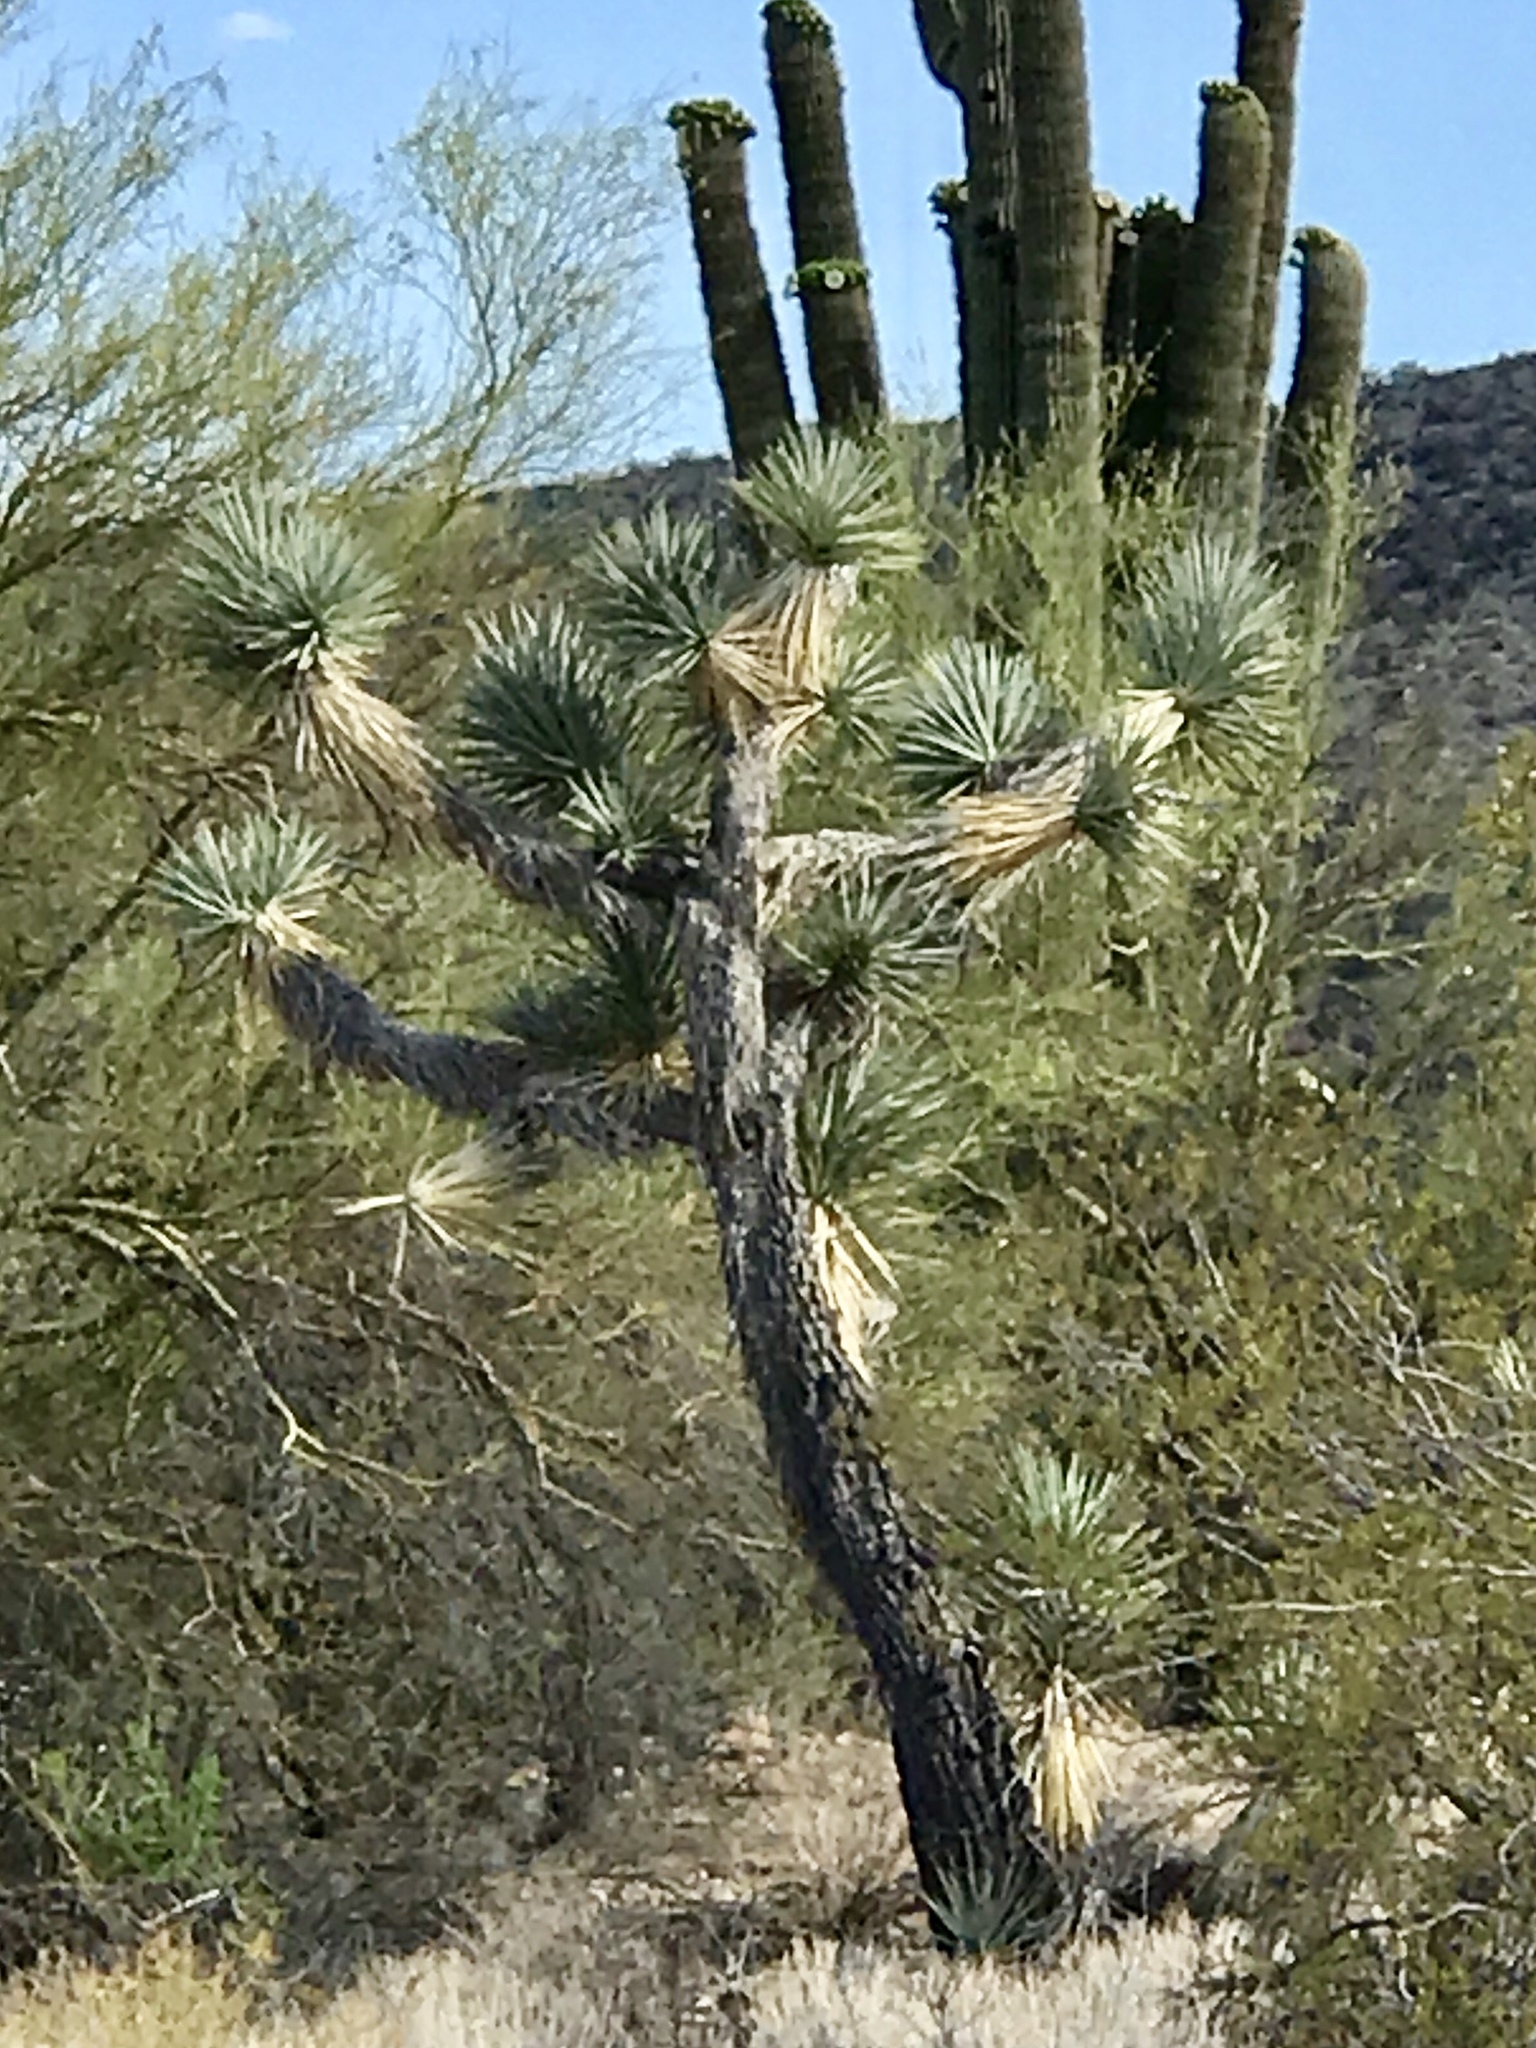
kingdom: Plantae
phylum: Tracheophyta
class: Liliopsida
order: Asparagales
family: Asparagaceae
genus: Yucca
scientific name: Yucca brevifolia
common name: Joshua tree
